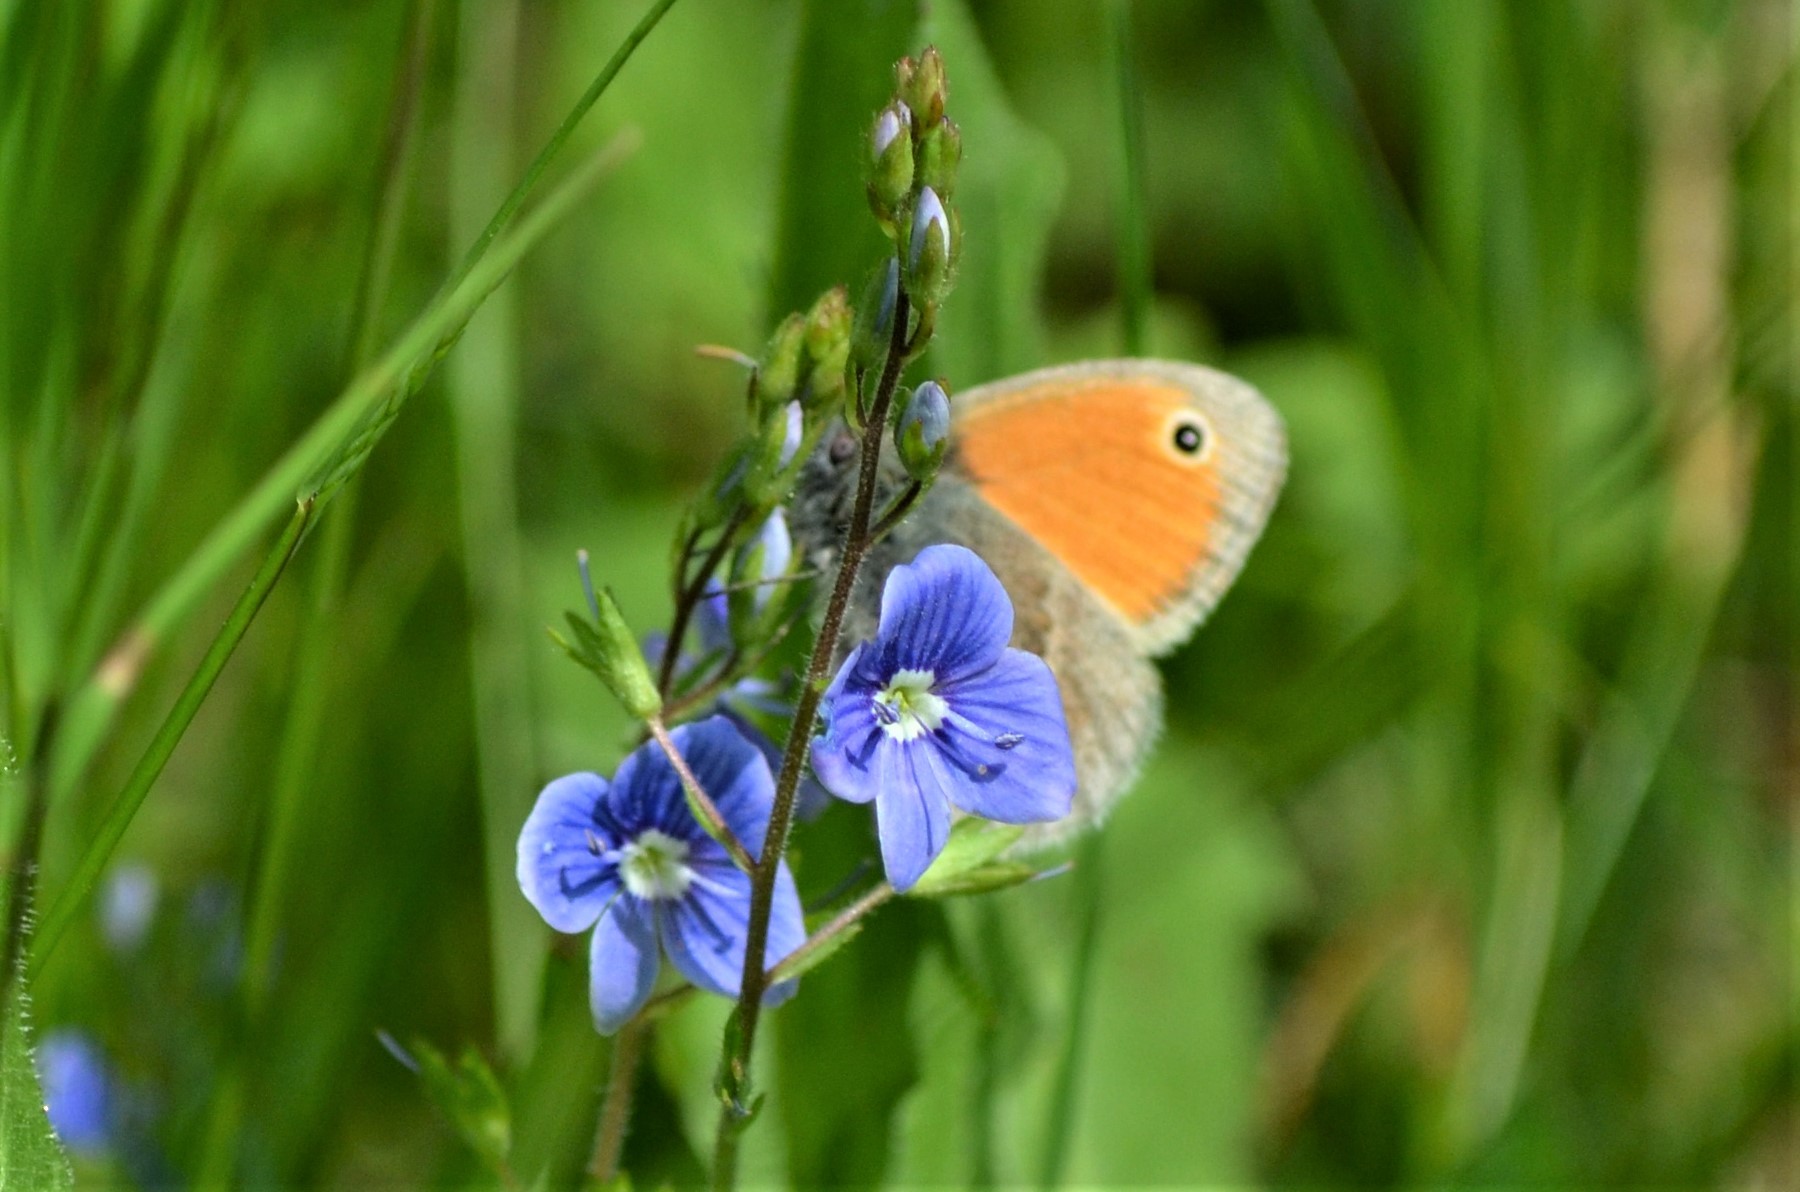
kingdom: Animalia
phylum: Arthropoda
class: Insecta
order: Lepidoptera
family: Nymphalidae
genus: Coenonympha
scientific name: Coenonympha pamphilus
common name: Small heath
